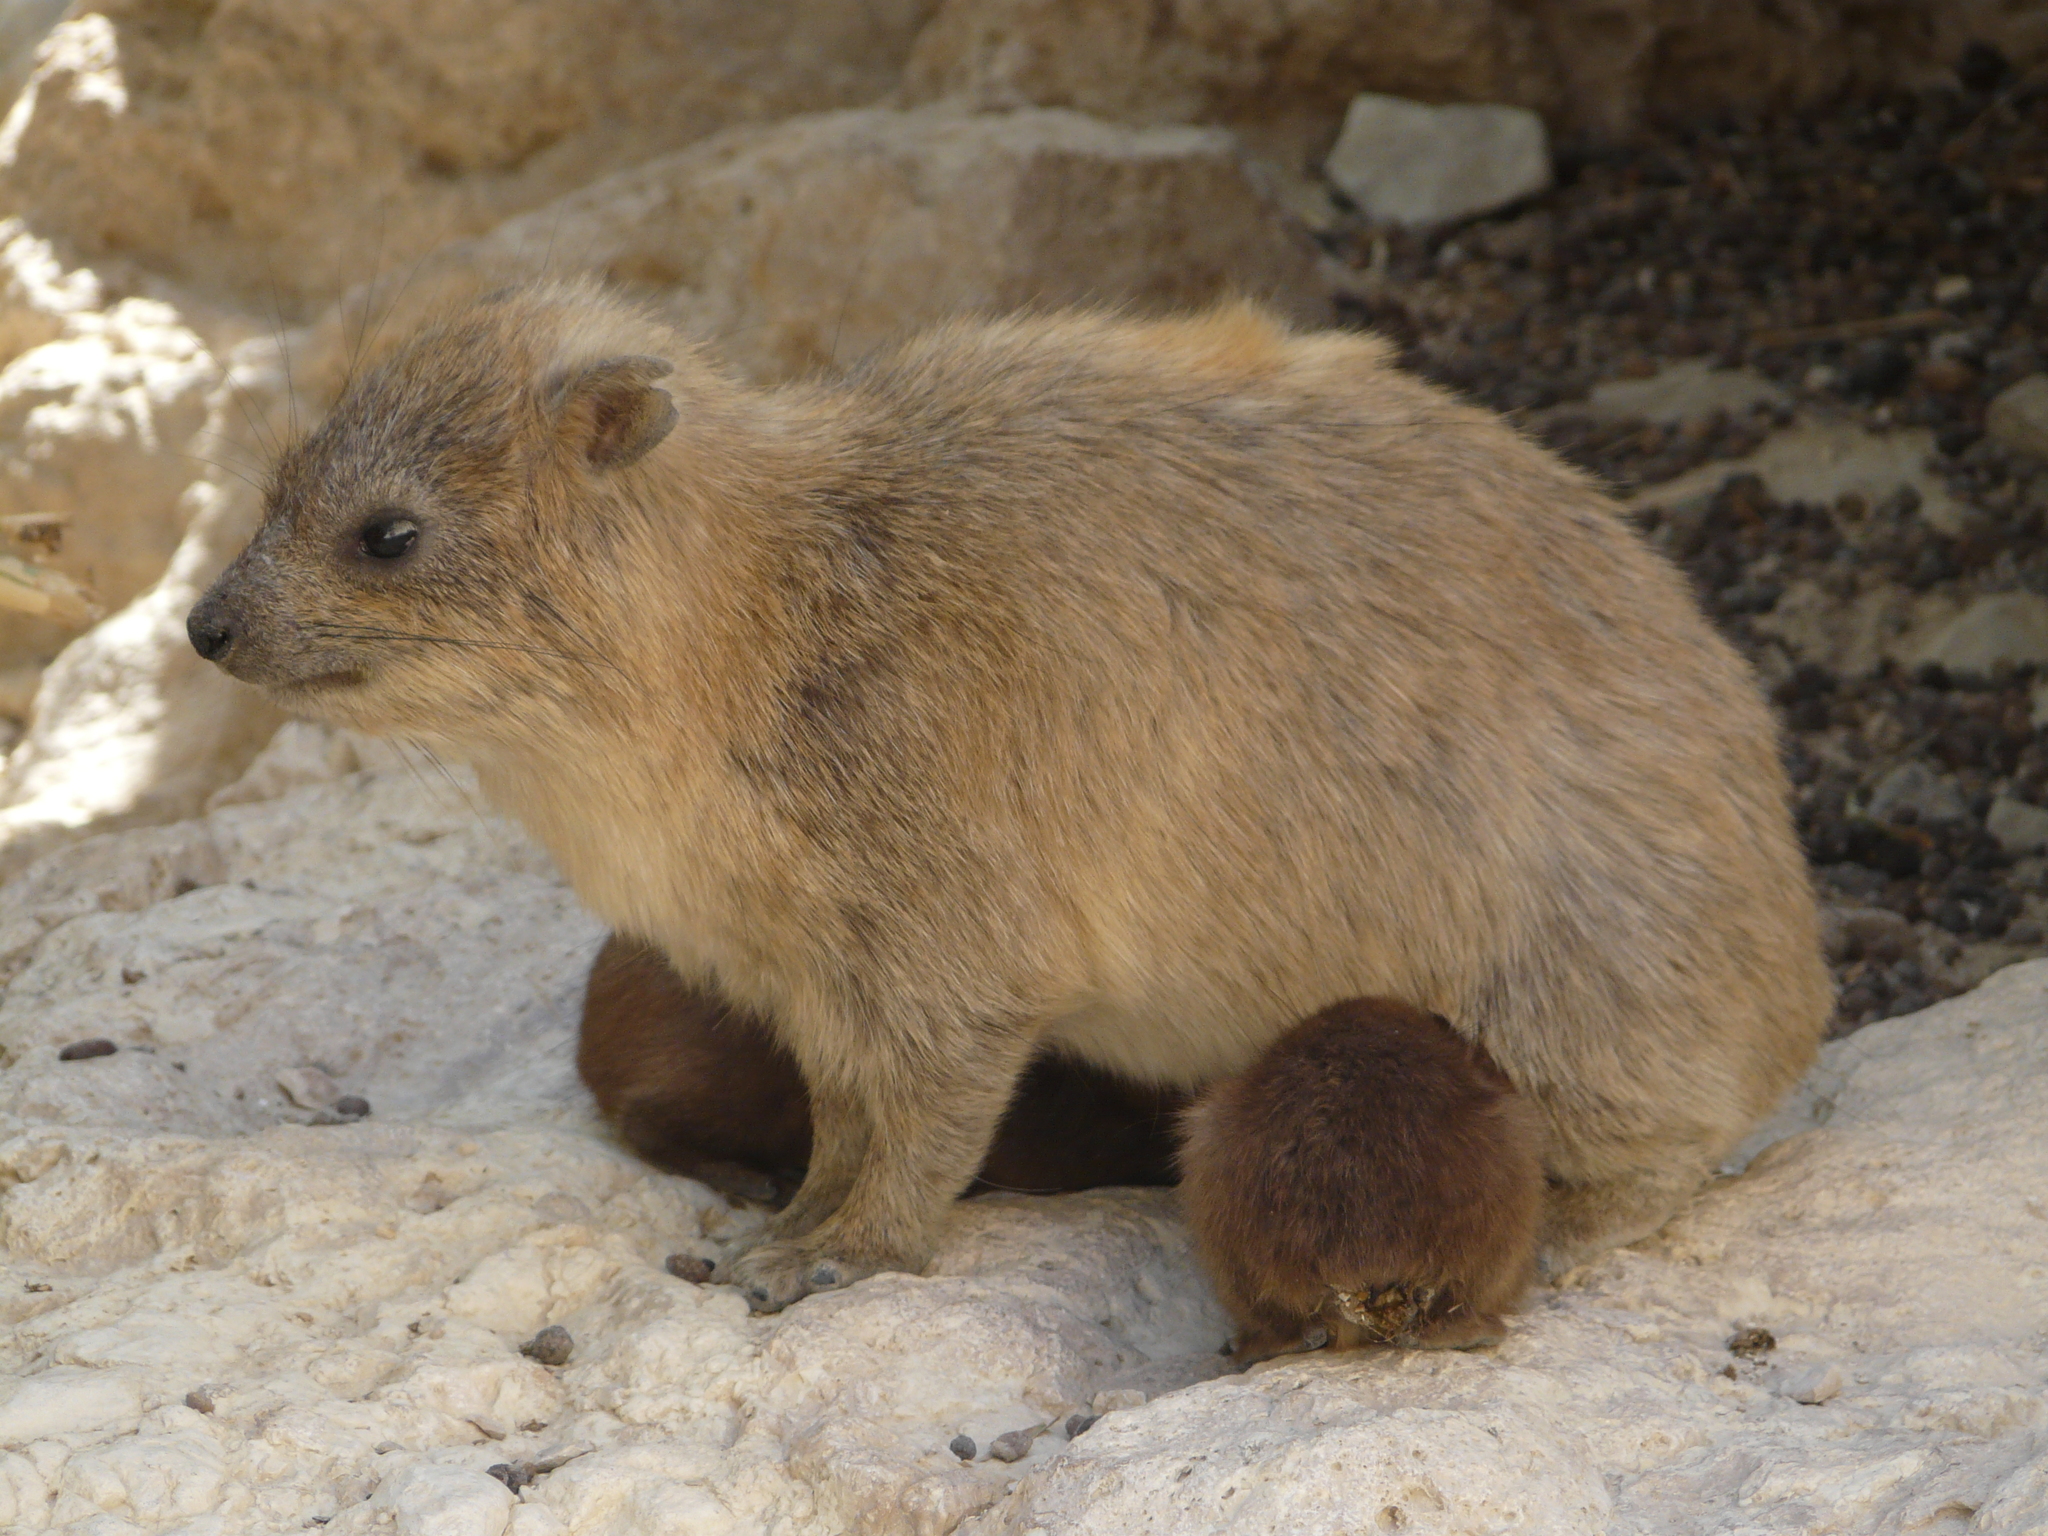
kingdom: Animalia
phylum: Chordata
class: Mammalia
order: Hyracoidea
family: Procaviidae
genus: Procavia
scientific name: Procavia capensis
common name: Rock hyrax
